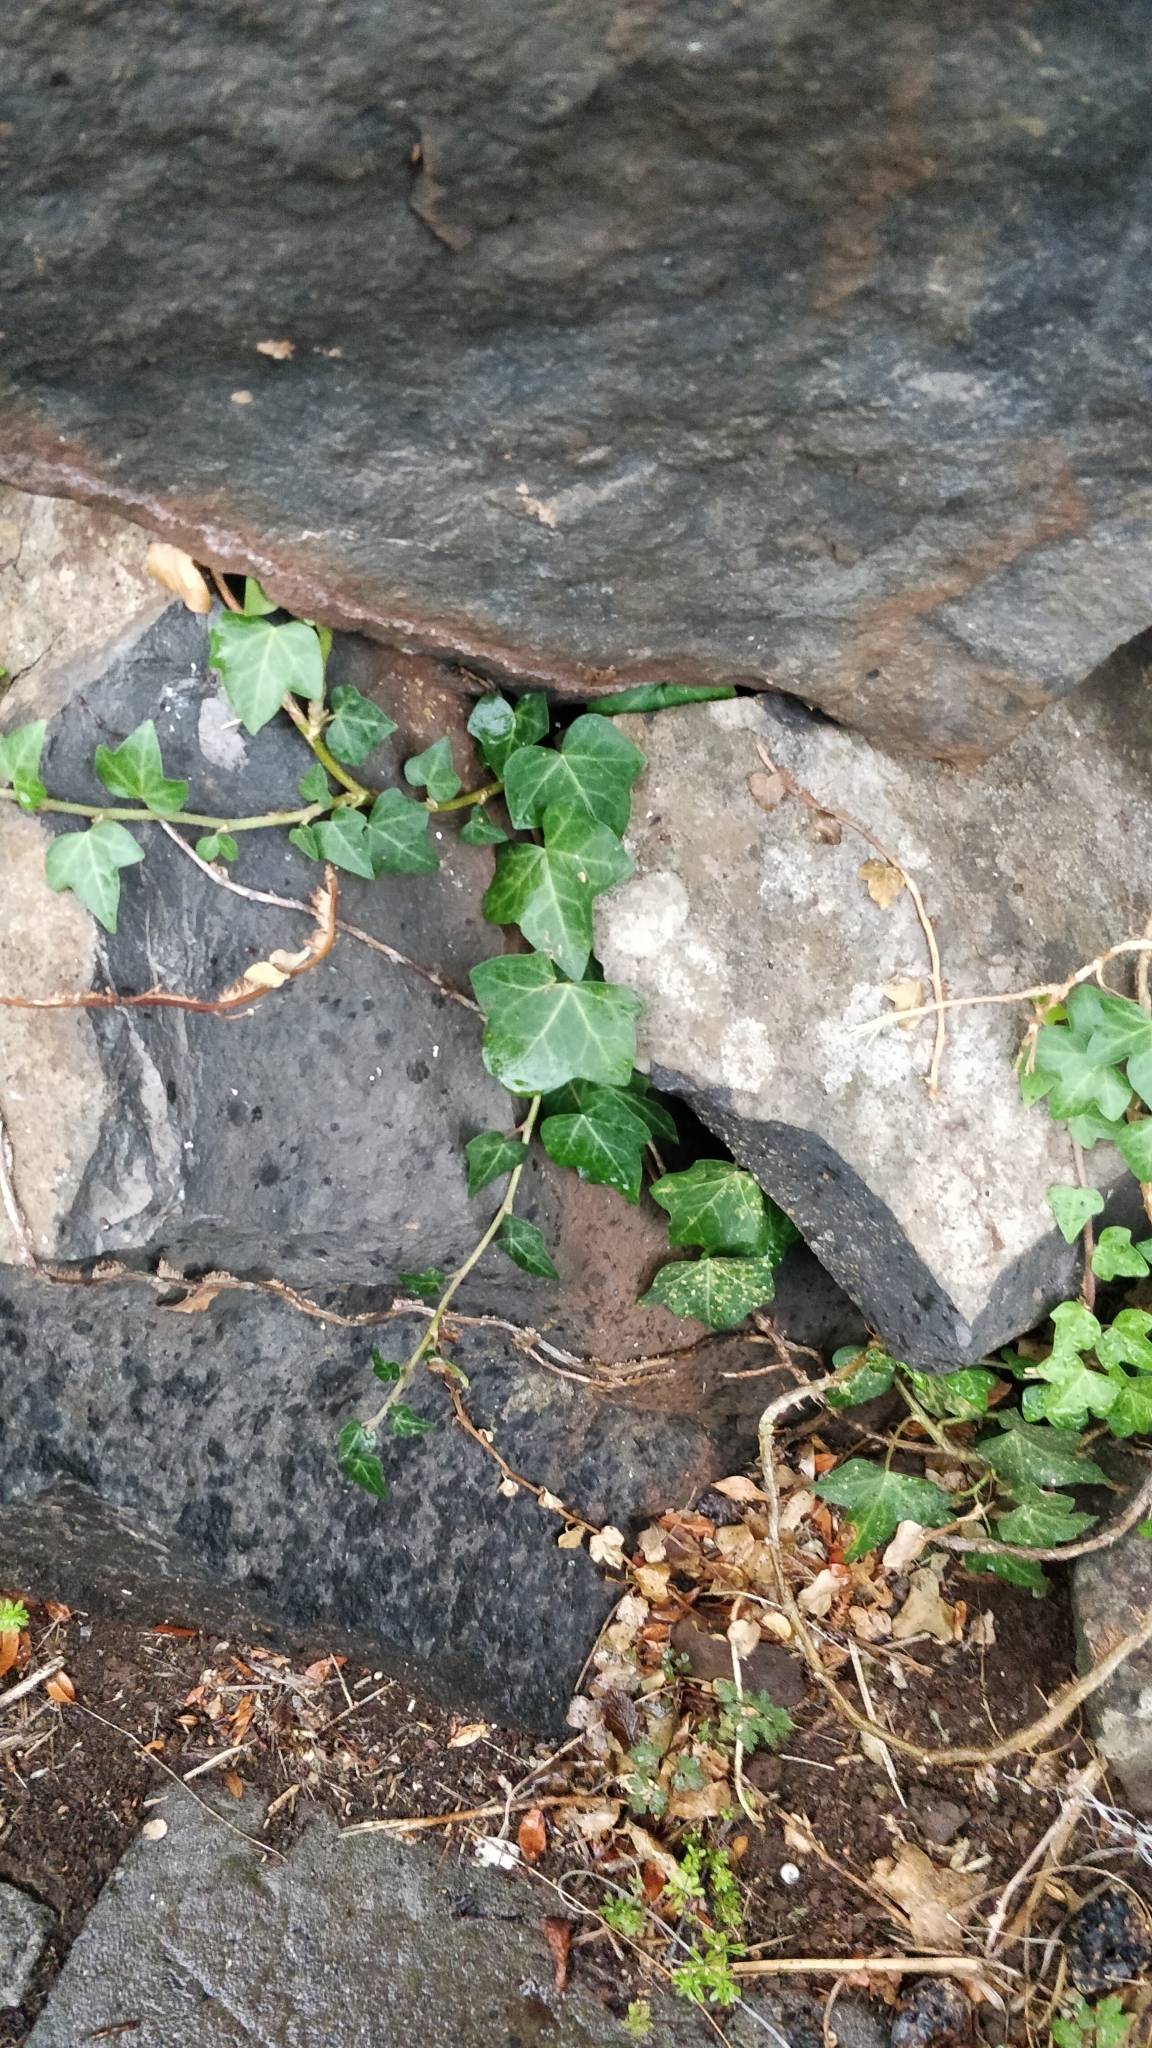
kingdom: Plantae
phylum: Tracheophyta
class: Magnoliopsida
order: Apiales
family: Araliaceae
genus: Hedera
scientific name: Hedera maderensis
